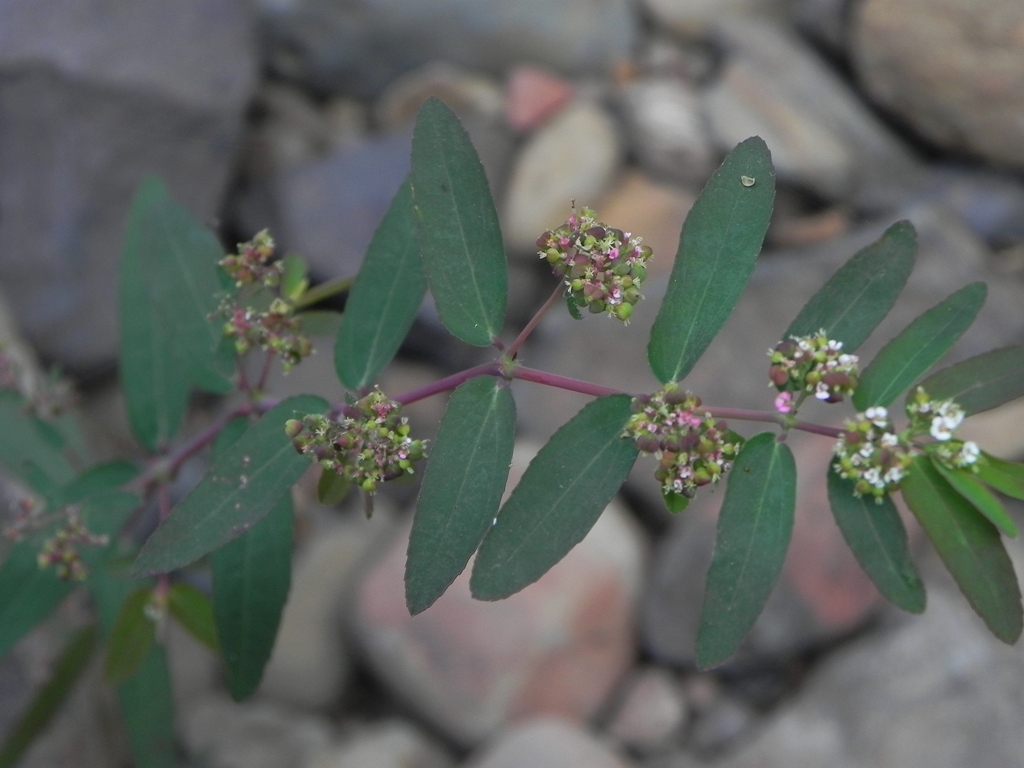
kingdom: Plantae
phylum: Tracheophyta
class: Magnoliopsida
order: Malpighiales
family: Euphorbiaceae
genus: Euphorbia
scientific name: Euphorbia hypericifolia
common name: Graceful sandmat
